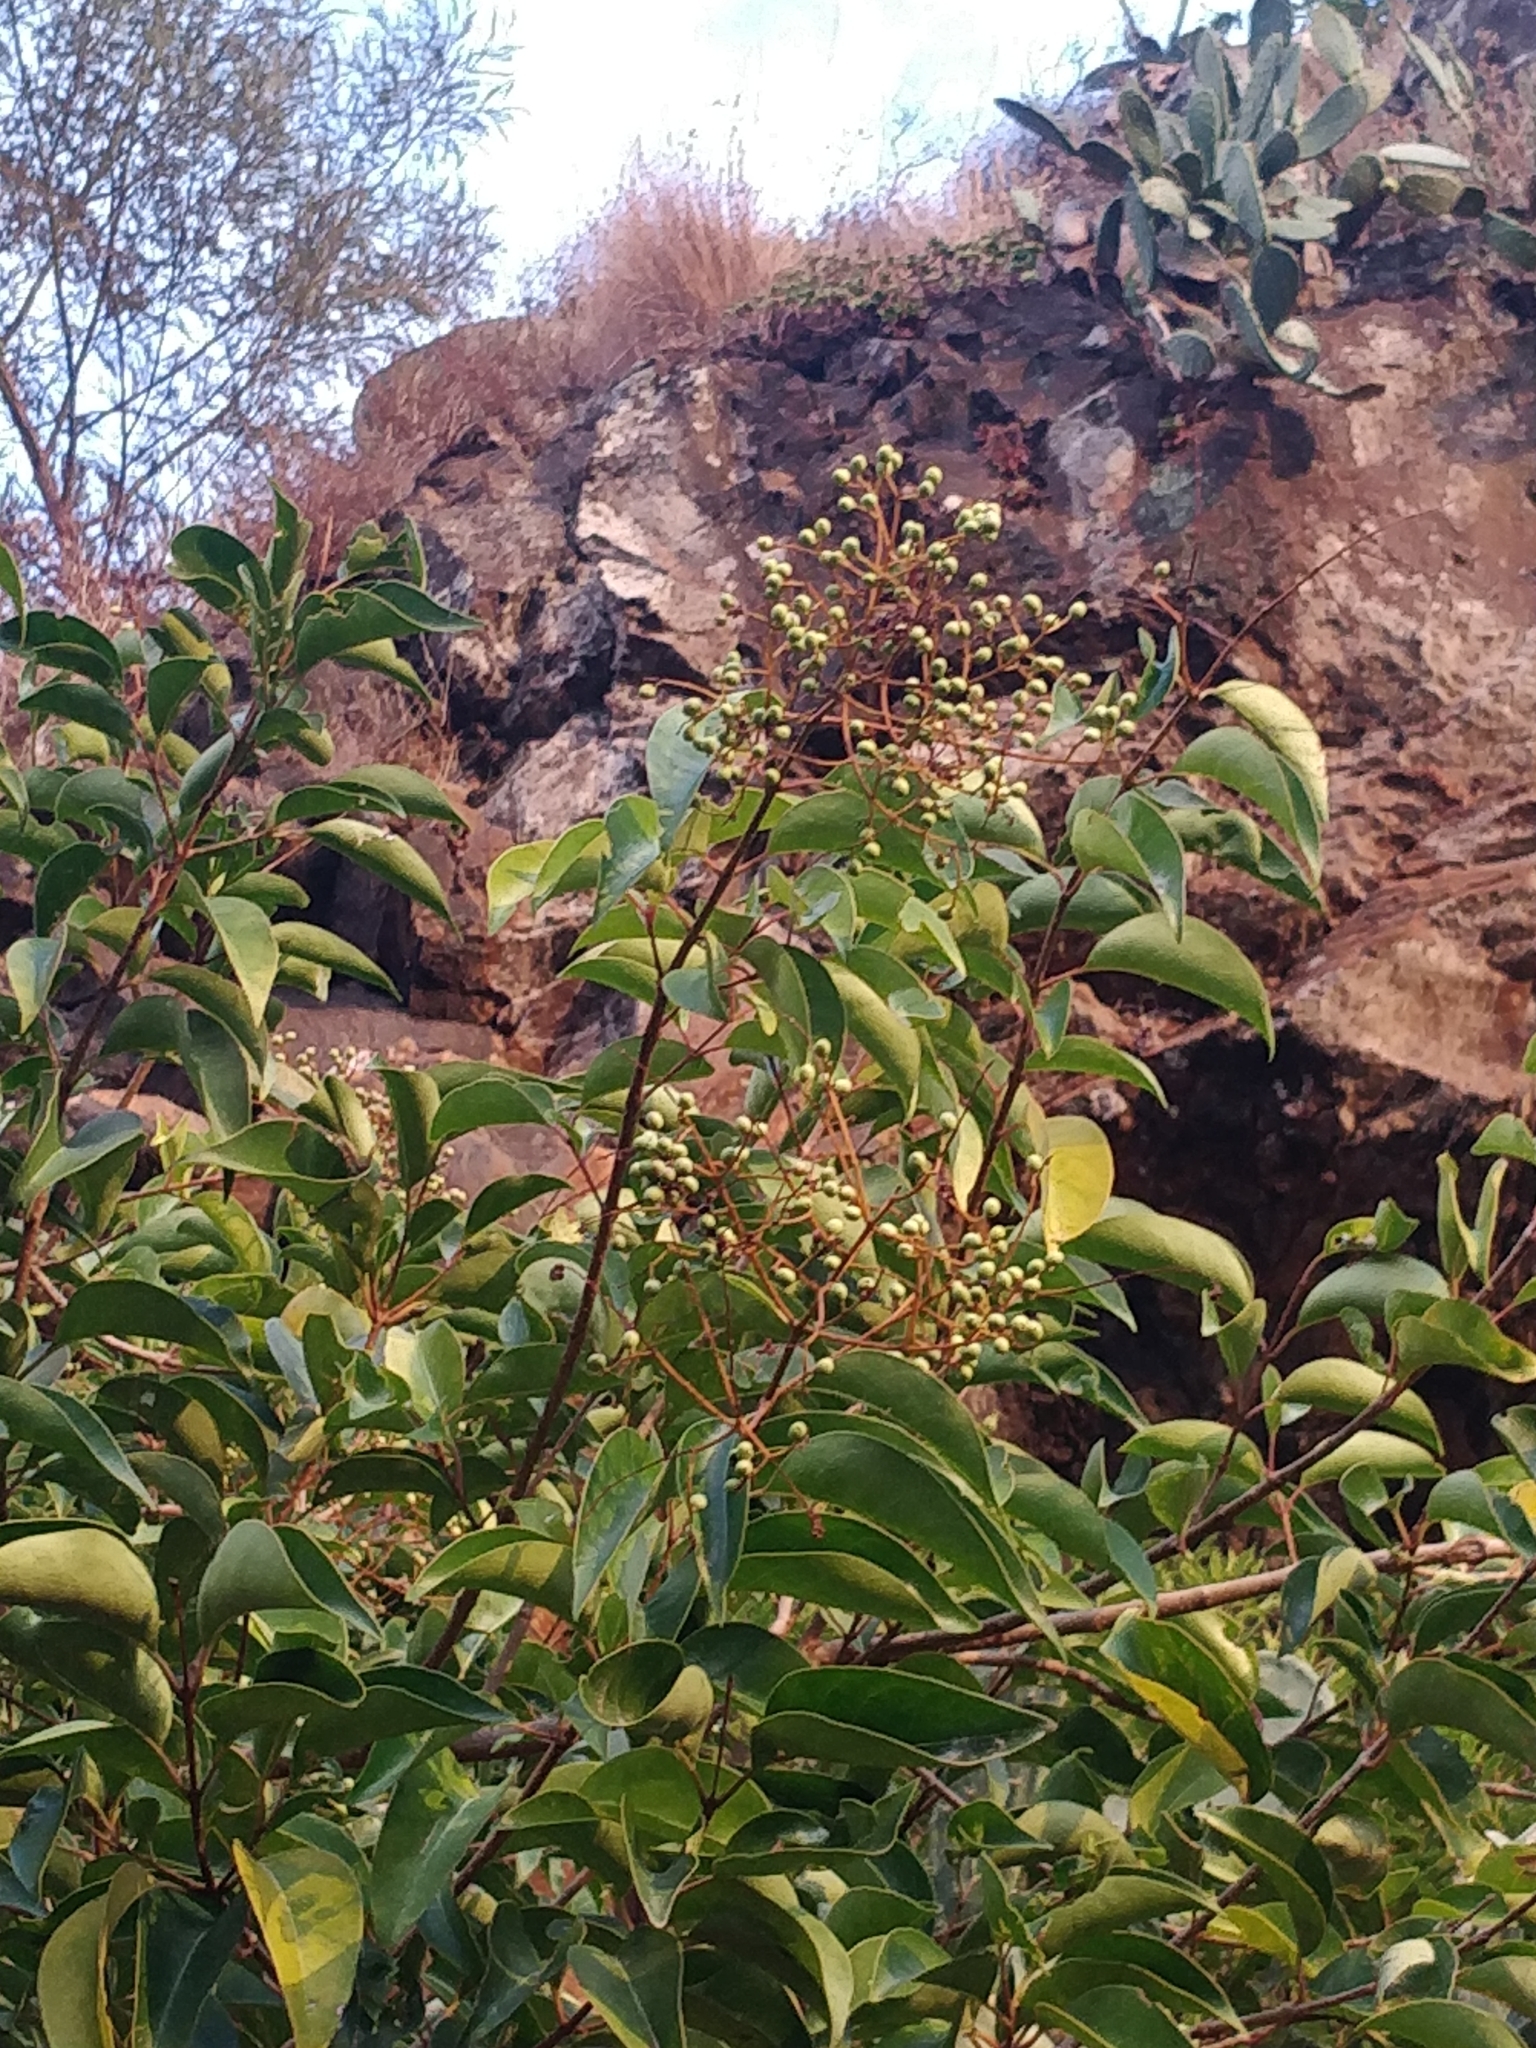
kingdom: Plantae
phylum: Tracheophyta
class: Magnoliopsida
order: Lamiales
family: Oleaceae
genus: Ligustrum
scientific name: Ligustrum lucidum
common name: Glossy privet
